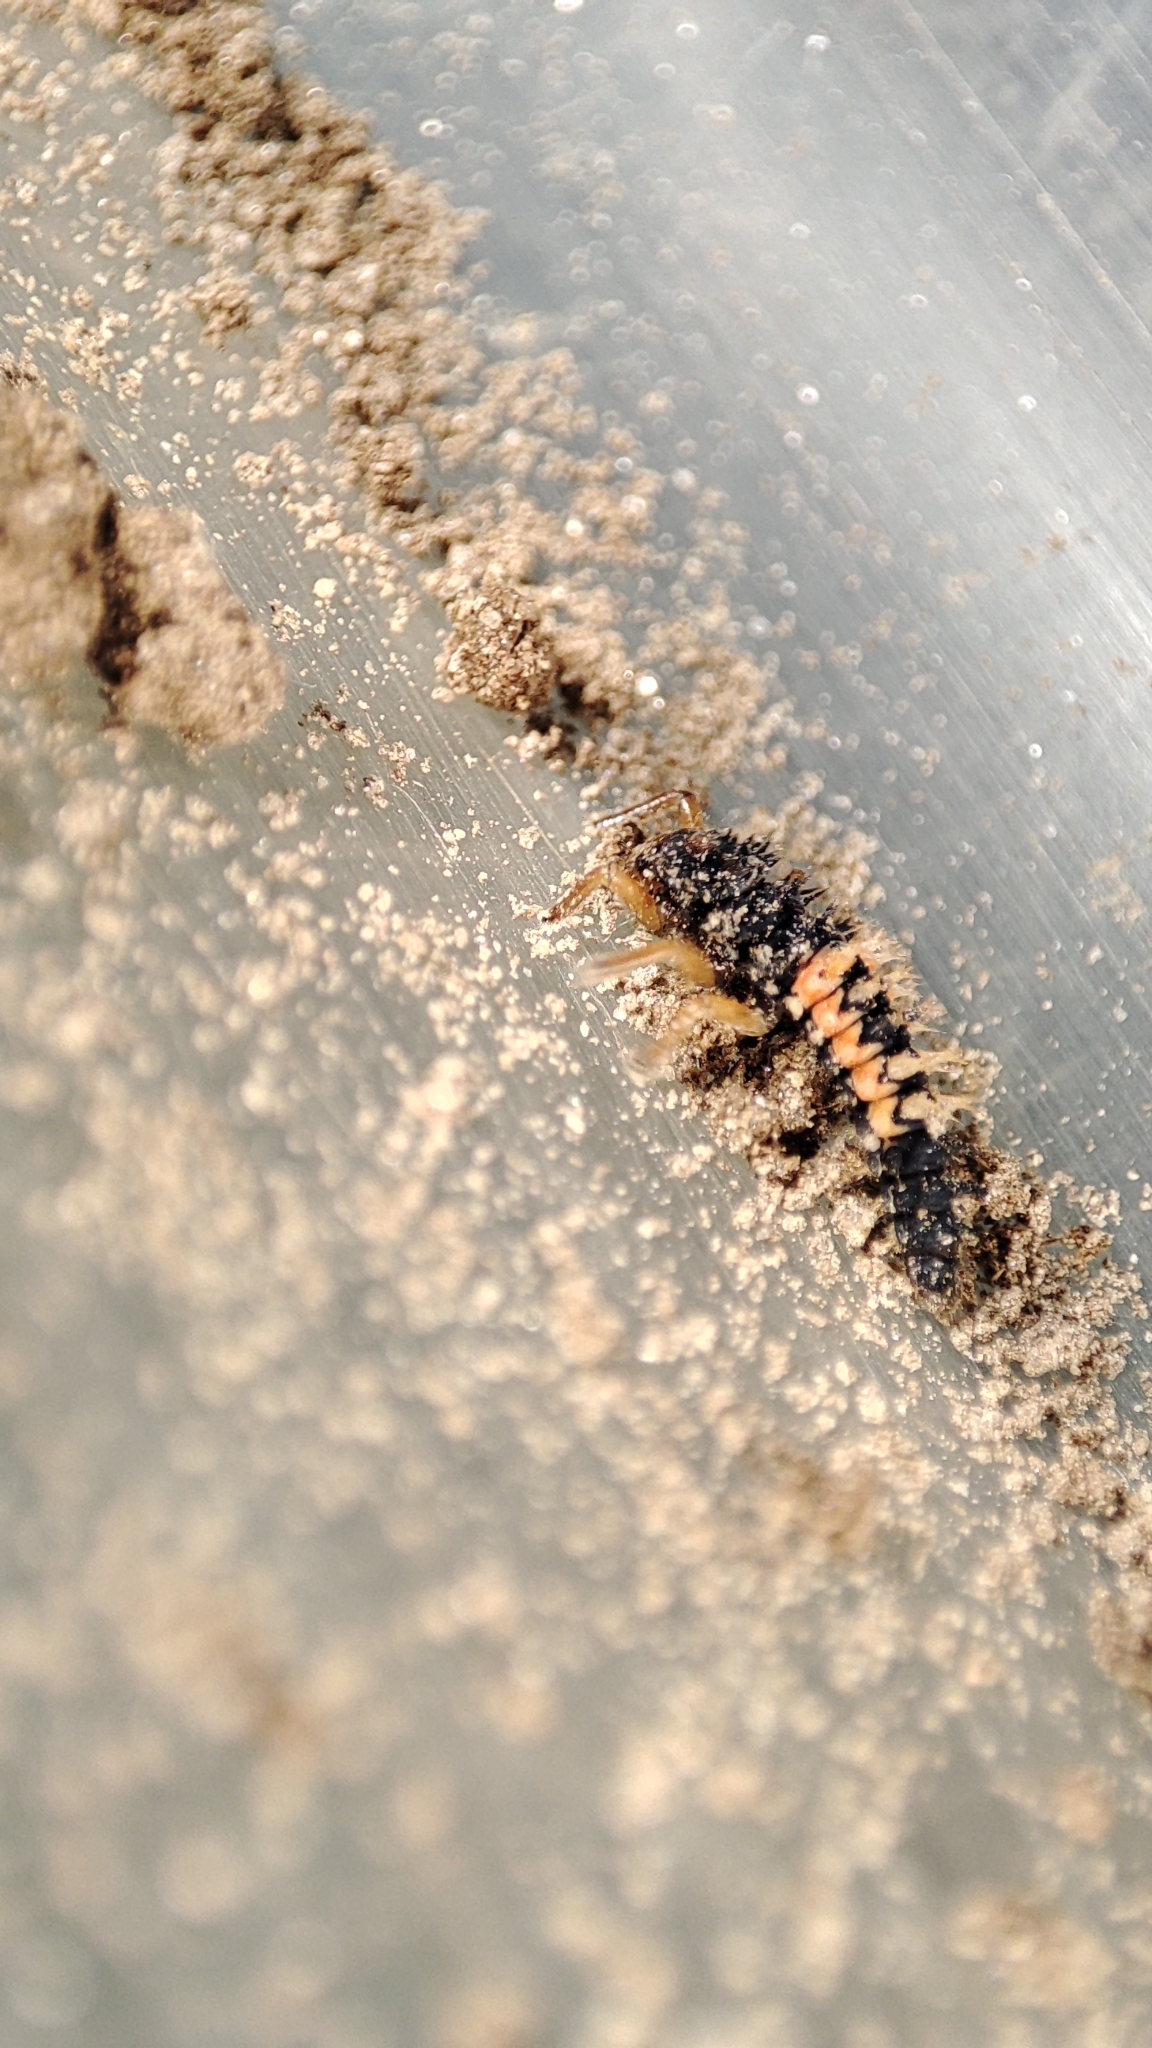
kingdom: Animalia
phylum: Arthropoda
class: Insecta
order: Coleoptera
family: Coccinellidae
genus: Harmonia
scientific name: Harmonia axyridis
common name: Harlequin ladybird
